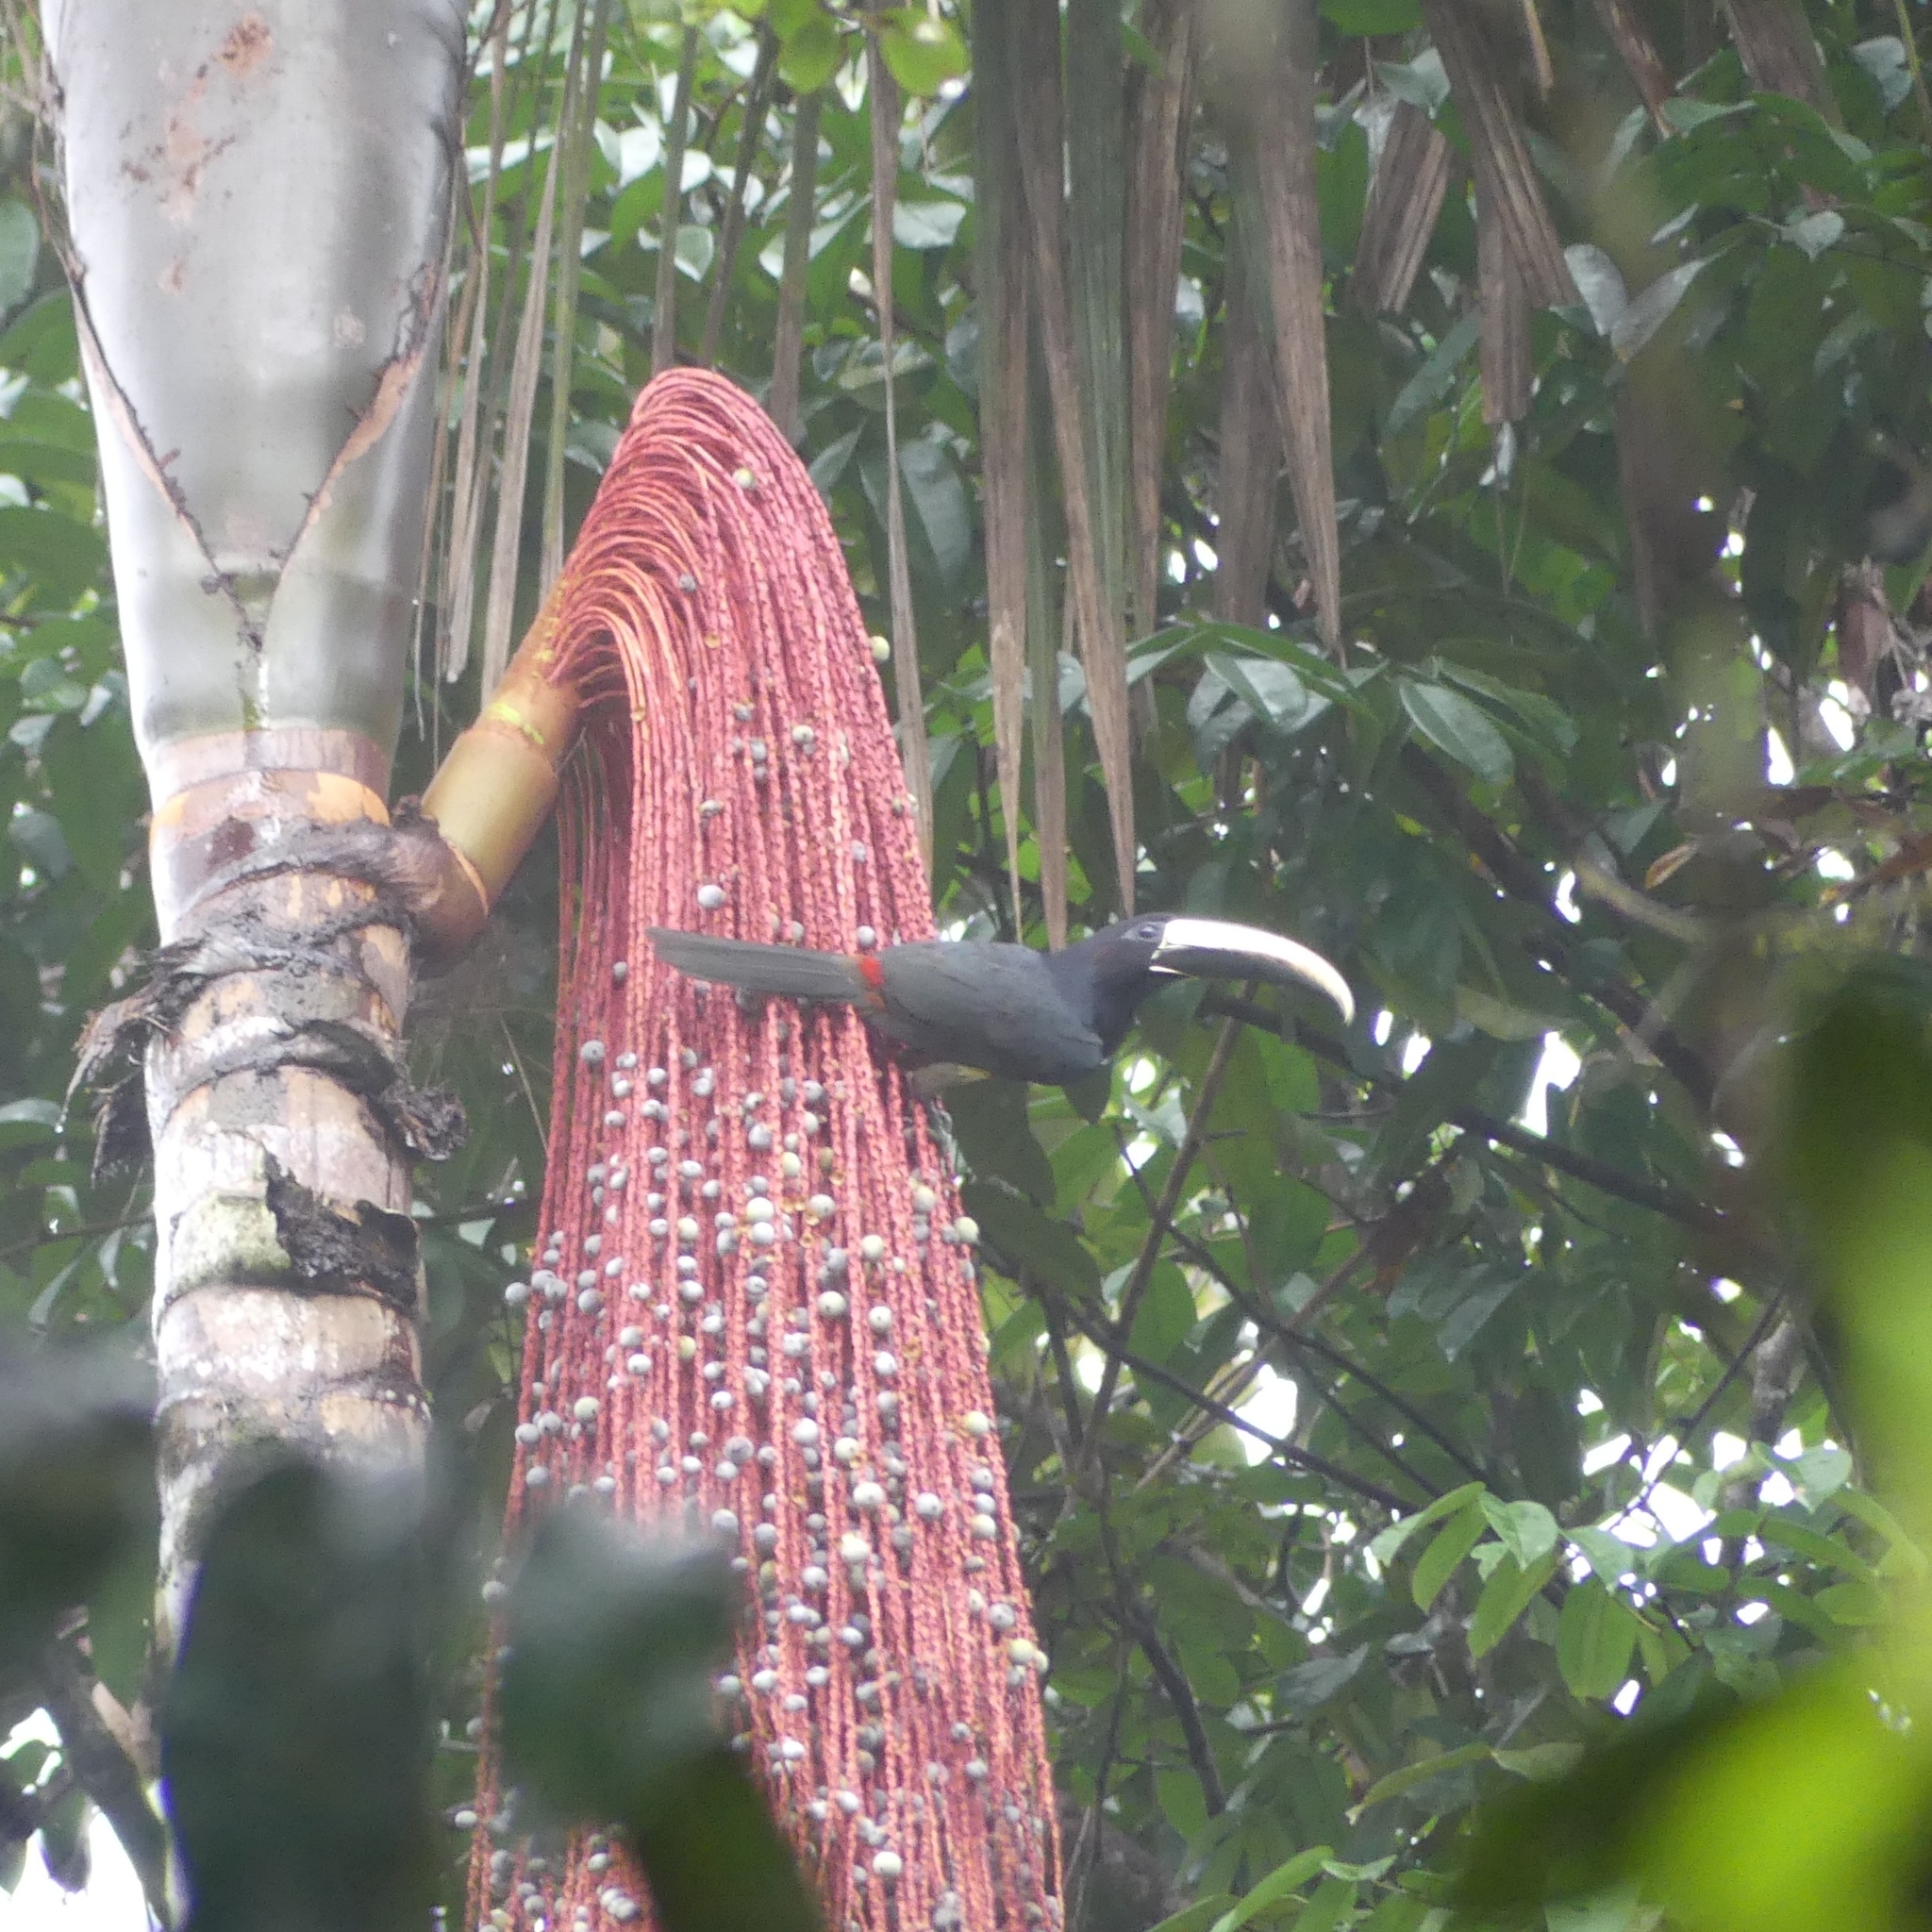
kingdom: Animalia
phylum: Chordata
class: Aves
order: Piciformes
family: Ramphastidae
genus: Pteroglossus
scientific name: Pteroglossus aracari
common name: Black-necked aracari
